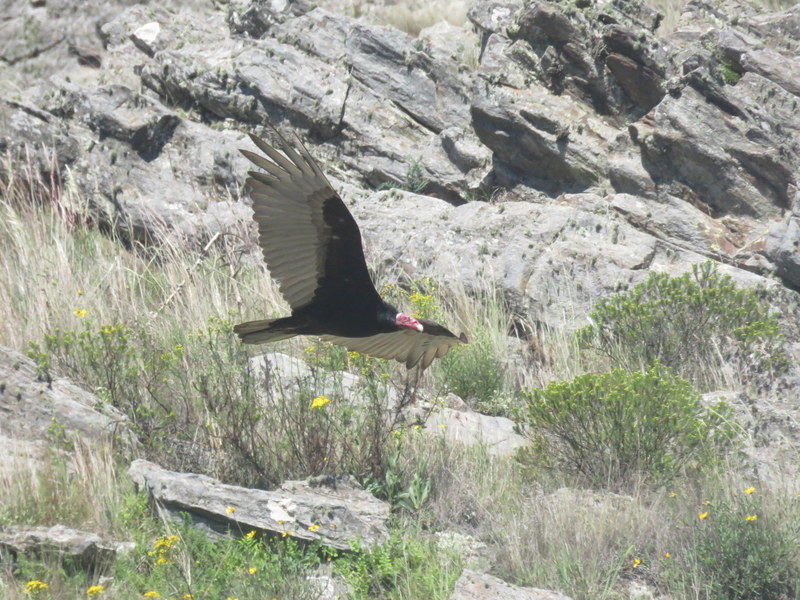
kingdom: Animalia
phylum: Chordata
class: Aves
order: Accipitriformes
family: Cathartidae
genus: Cathartes
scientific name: Cathartes aura
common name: Turkey vulture
